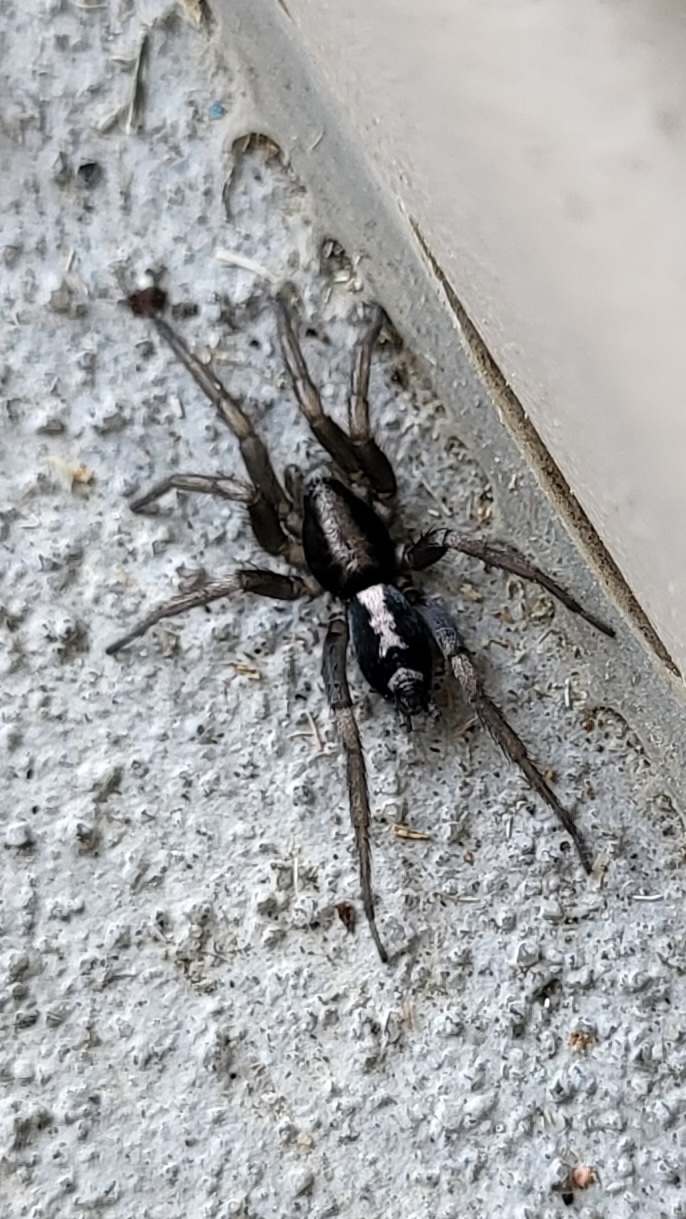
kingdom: Animalia
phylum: Arthropoda
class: Arachnida
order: Araneae
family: Gnaphosidae
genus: Herpyllus
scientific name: Herpyllus ecclesiasticus
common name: Eastern parson spider
